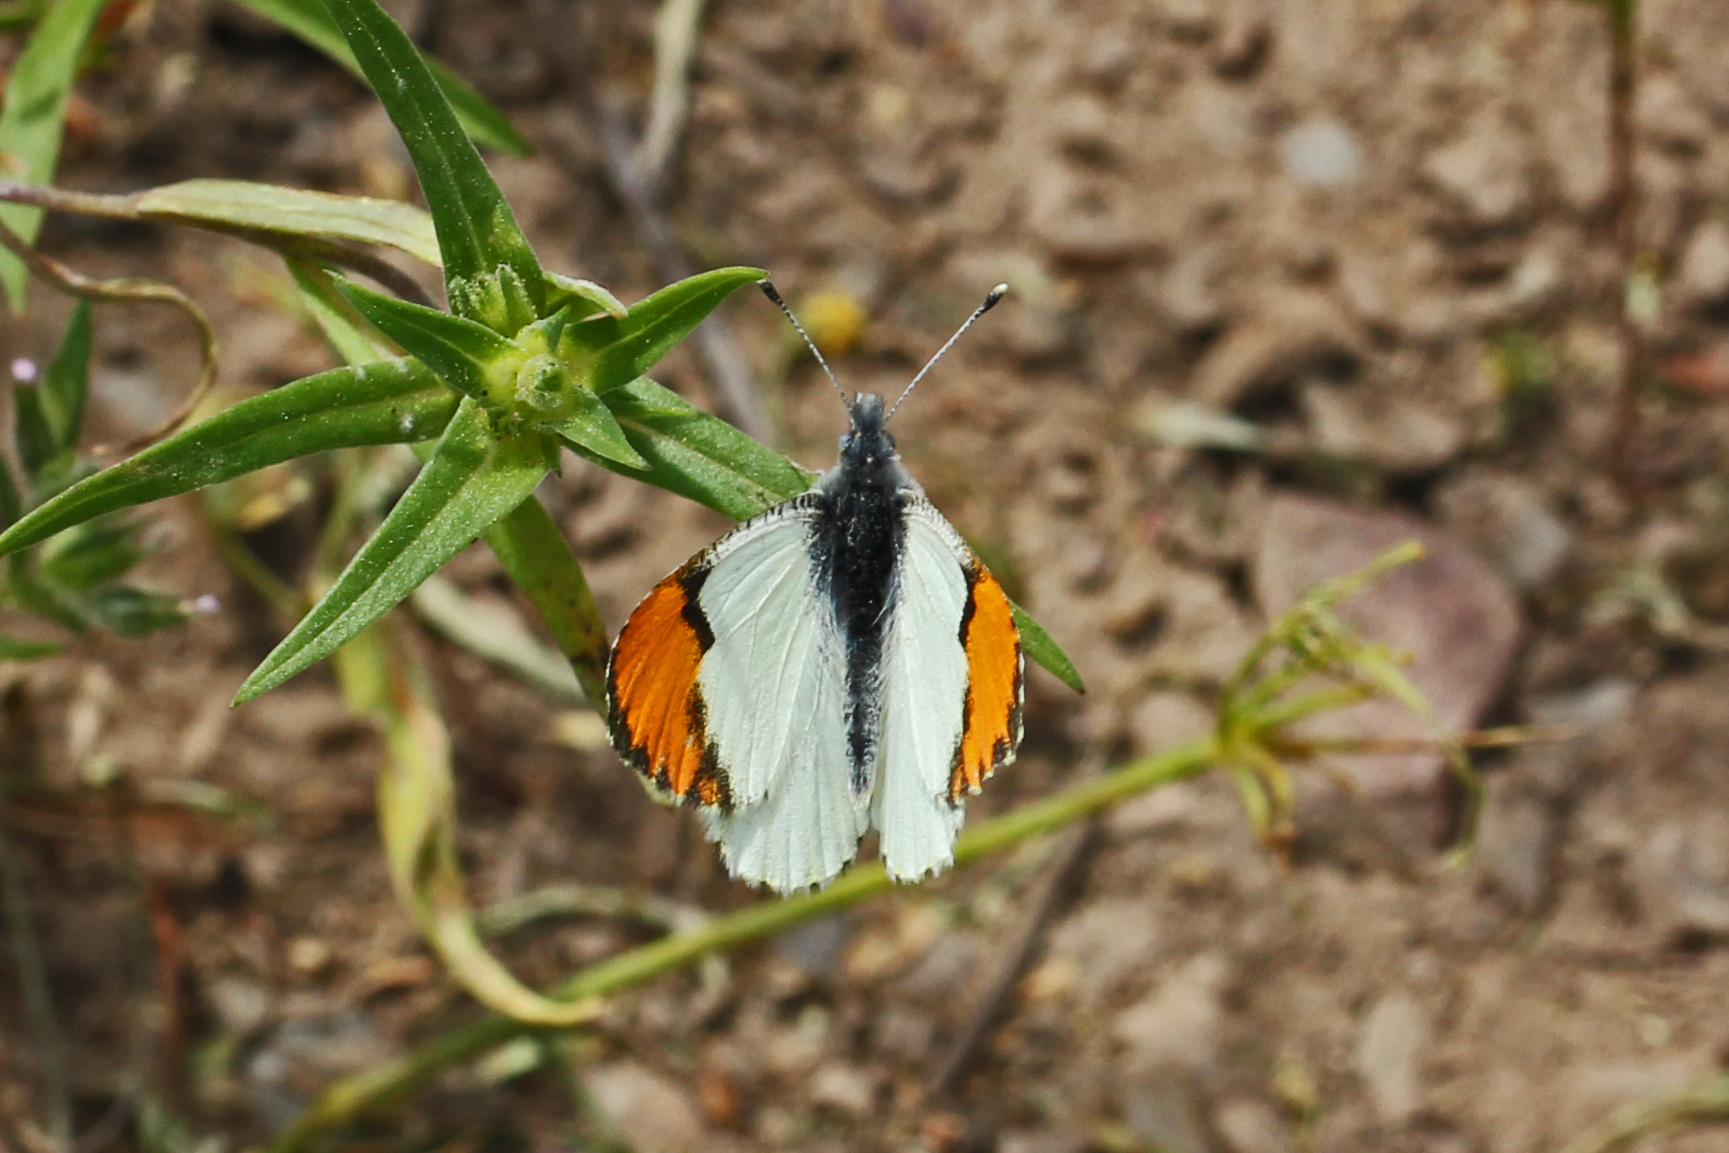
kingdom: Animalia
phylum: Arthropoda
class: Insecta
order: Lepidoptera
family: Pieridae
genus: Anthocharis
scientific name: Anthocharis julia
